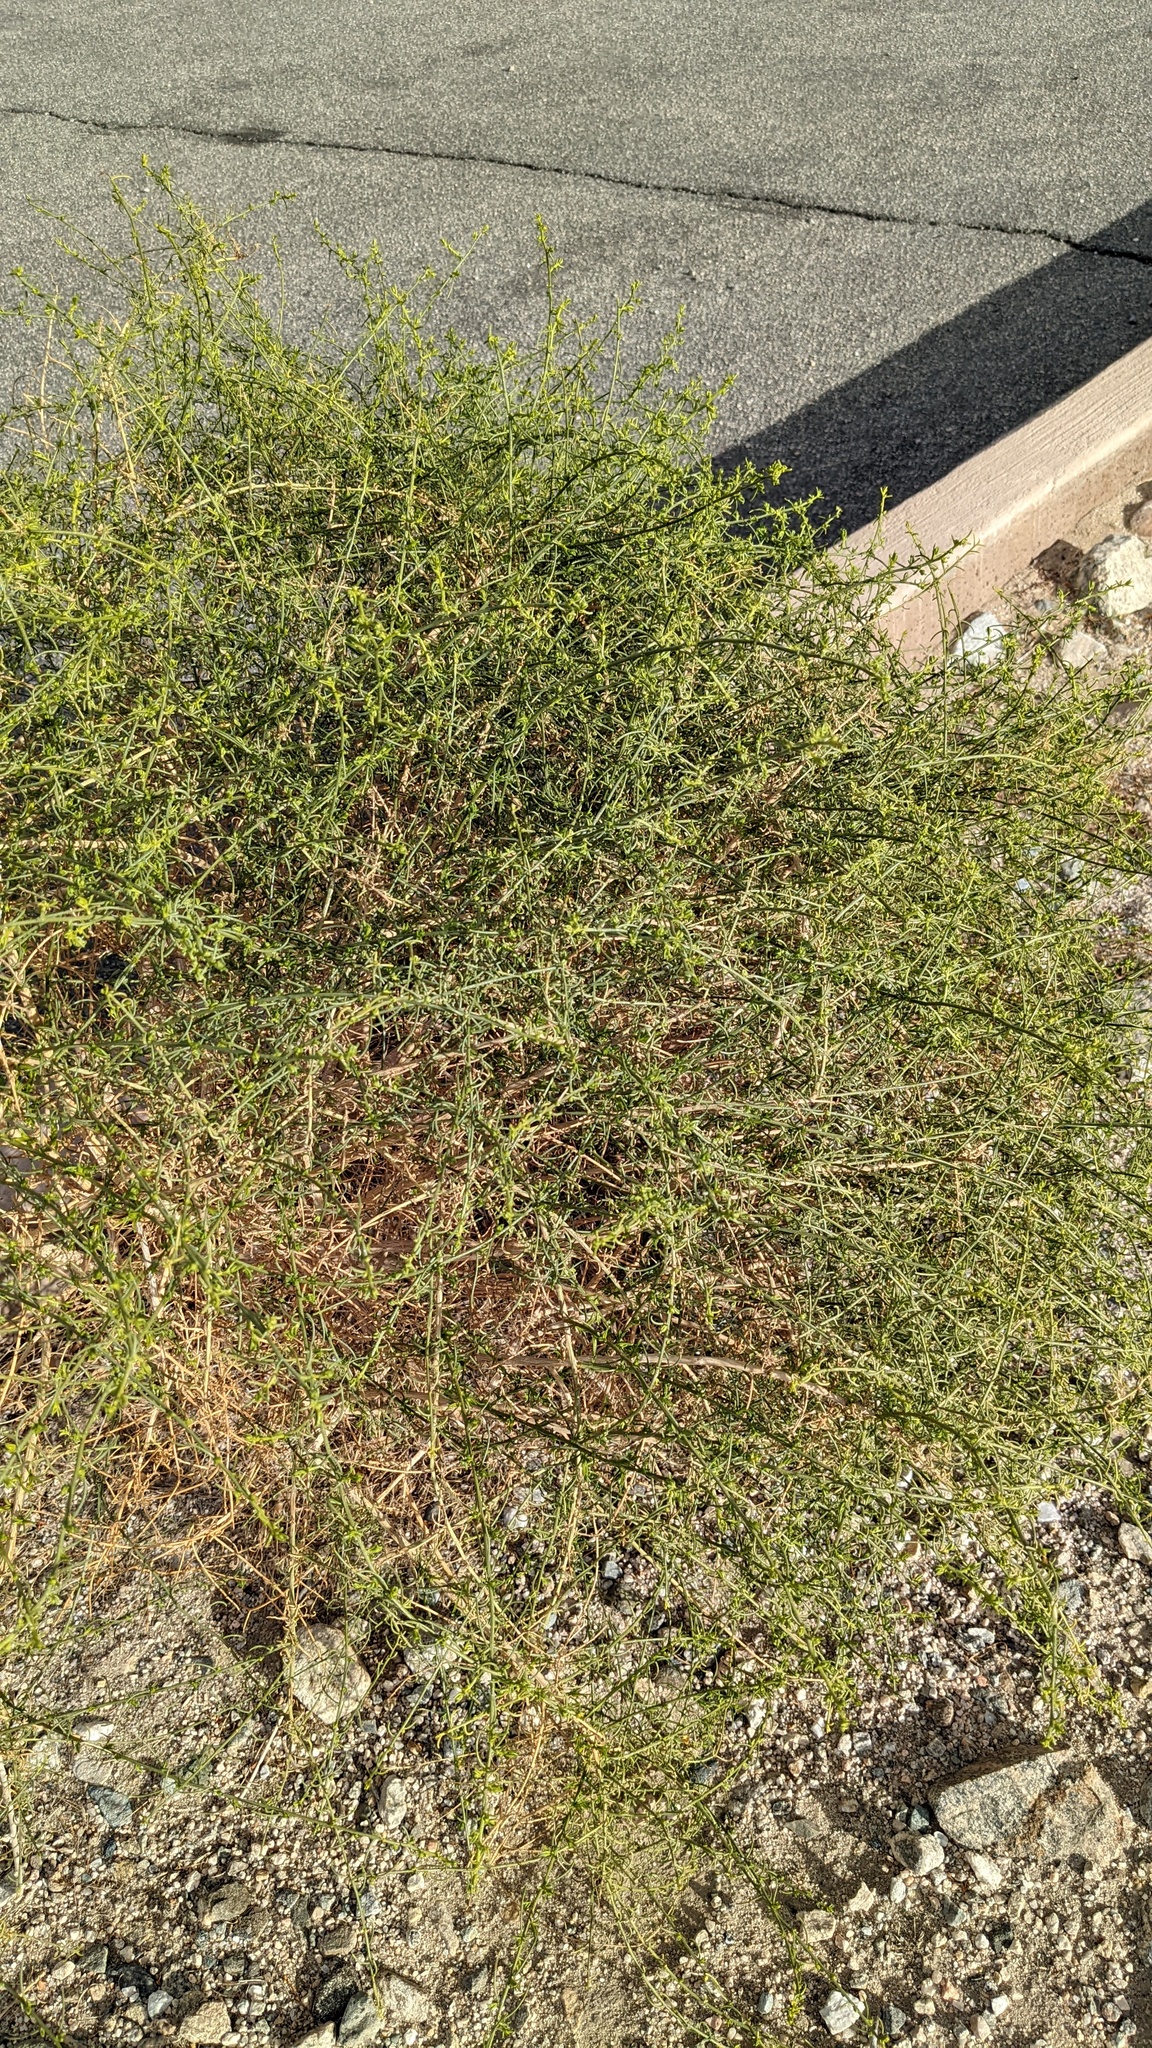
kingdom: Plantae
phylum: Tracheophyta
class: Magnoliopsida
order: Asterales
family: Asteraceae
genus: Ambrosia
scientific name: Ambrosia salsola
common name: Burrobrush
